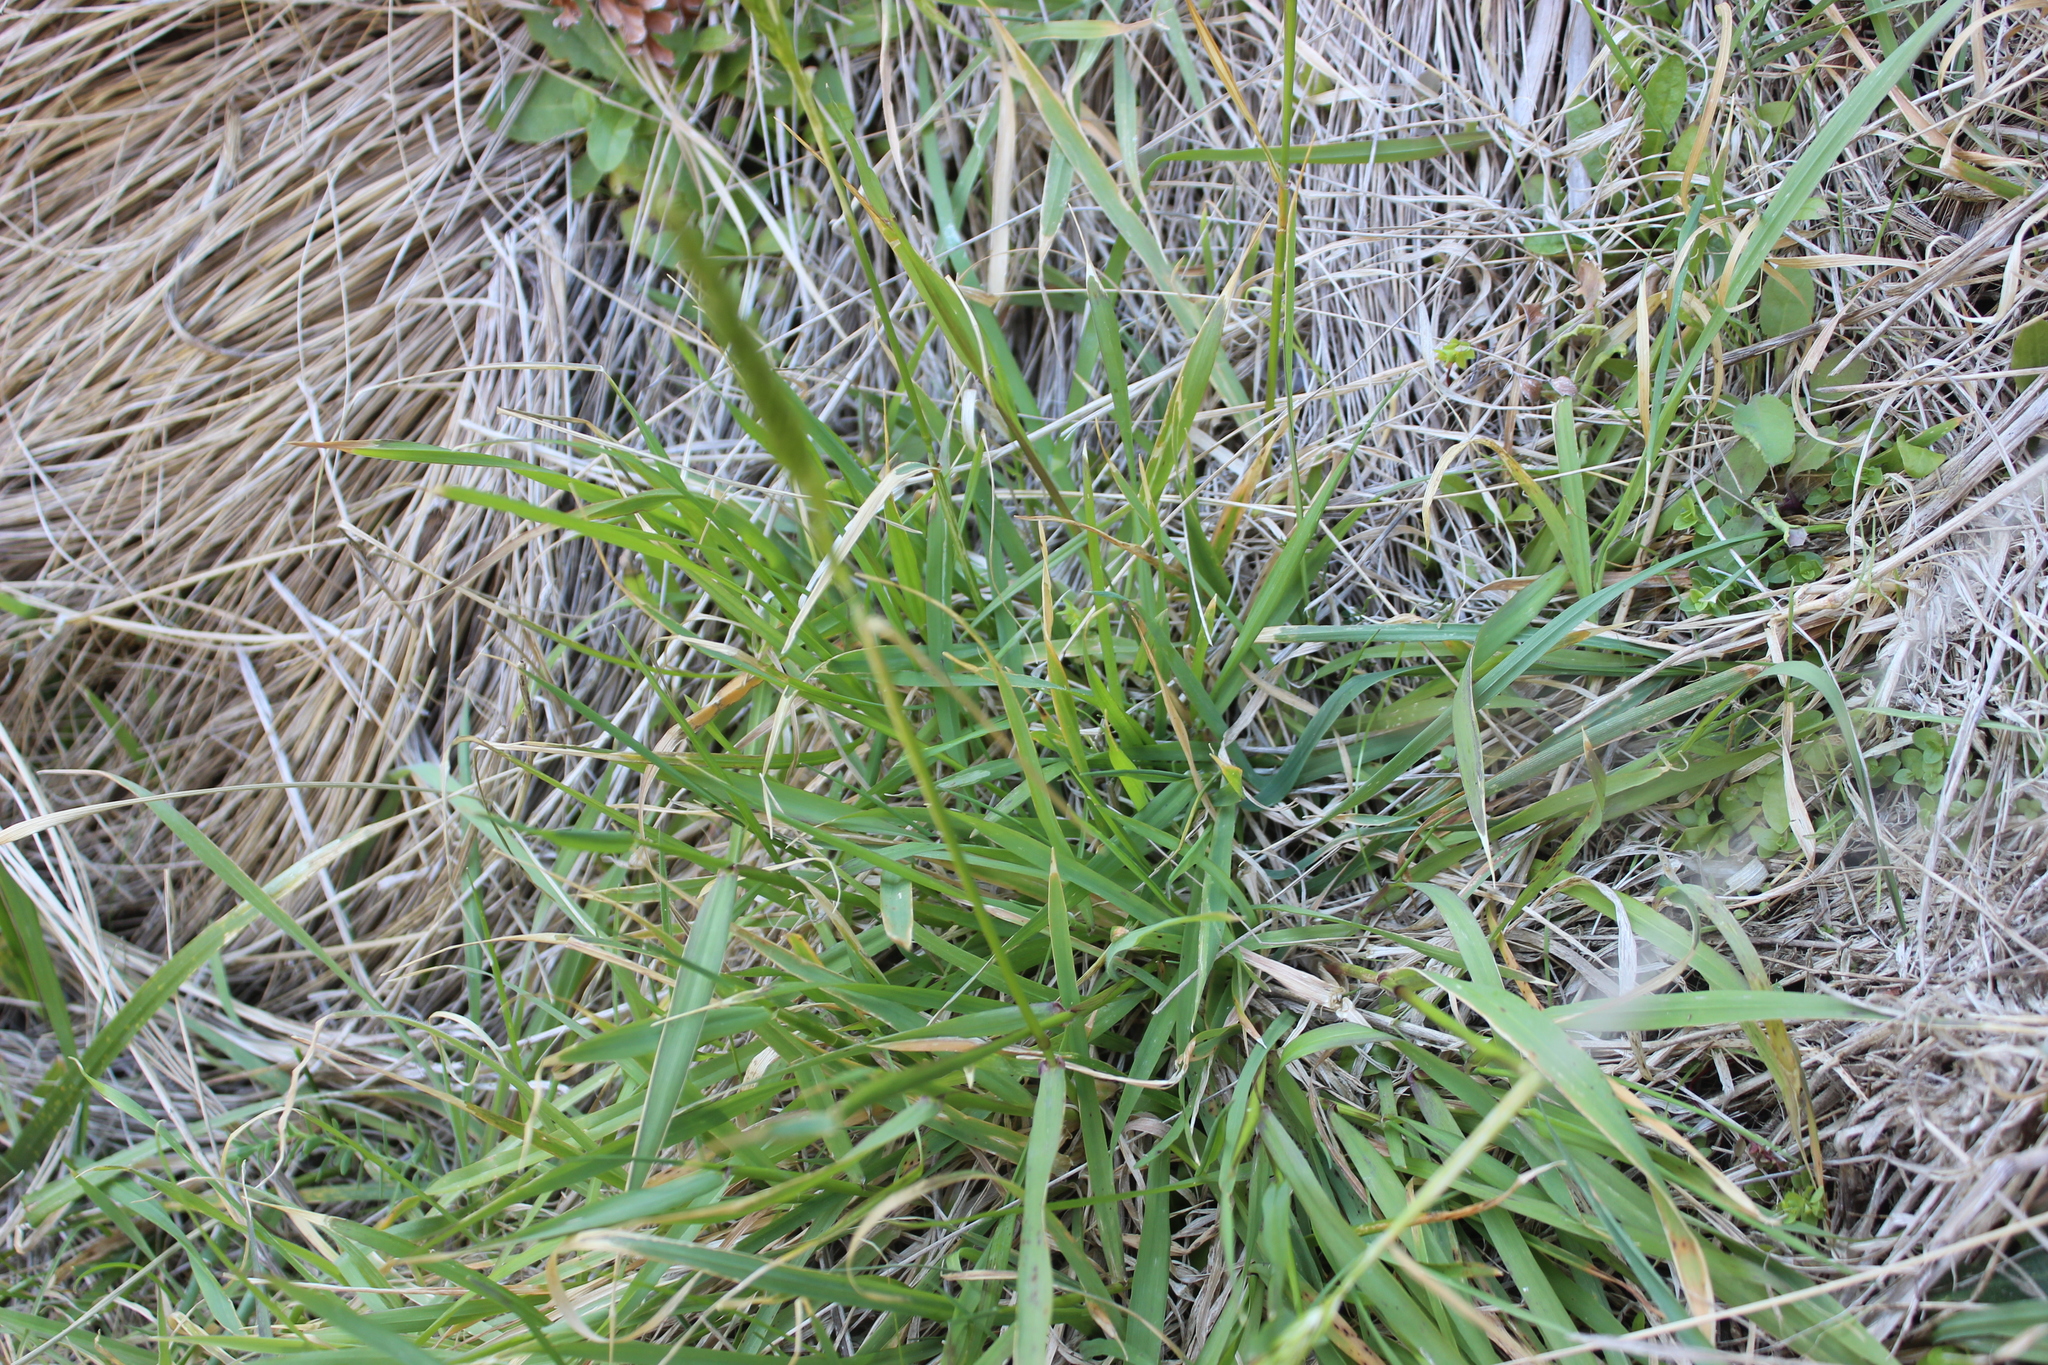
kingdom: Plantae
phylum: Tracheophyta
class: Liliopsida
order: Poales
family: Poaceae
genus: Anthoxanthum
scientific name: Anthoxanthum odoratum
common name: Sweet vernalgrass
